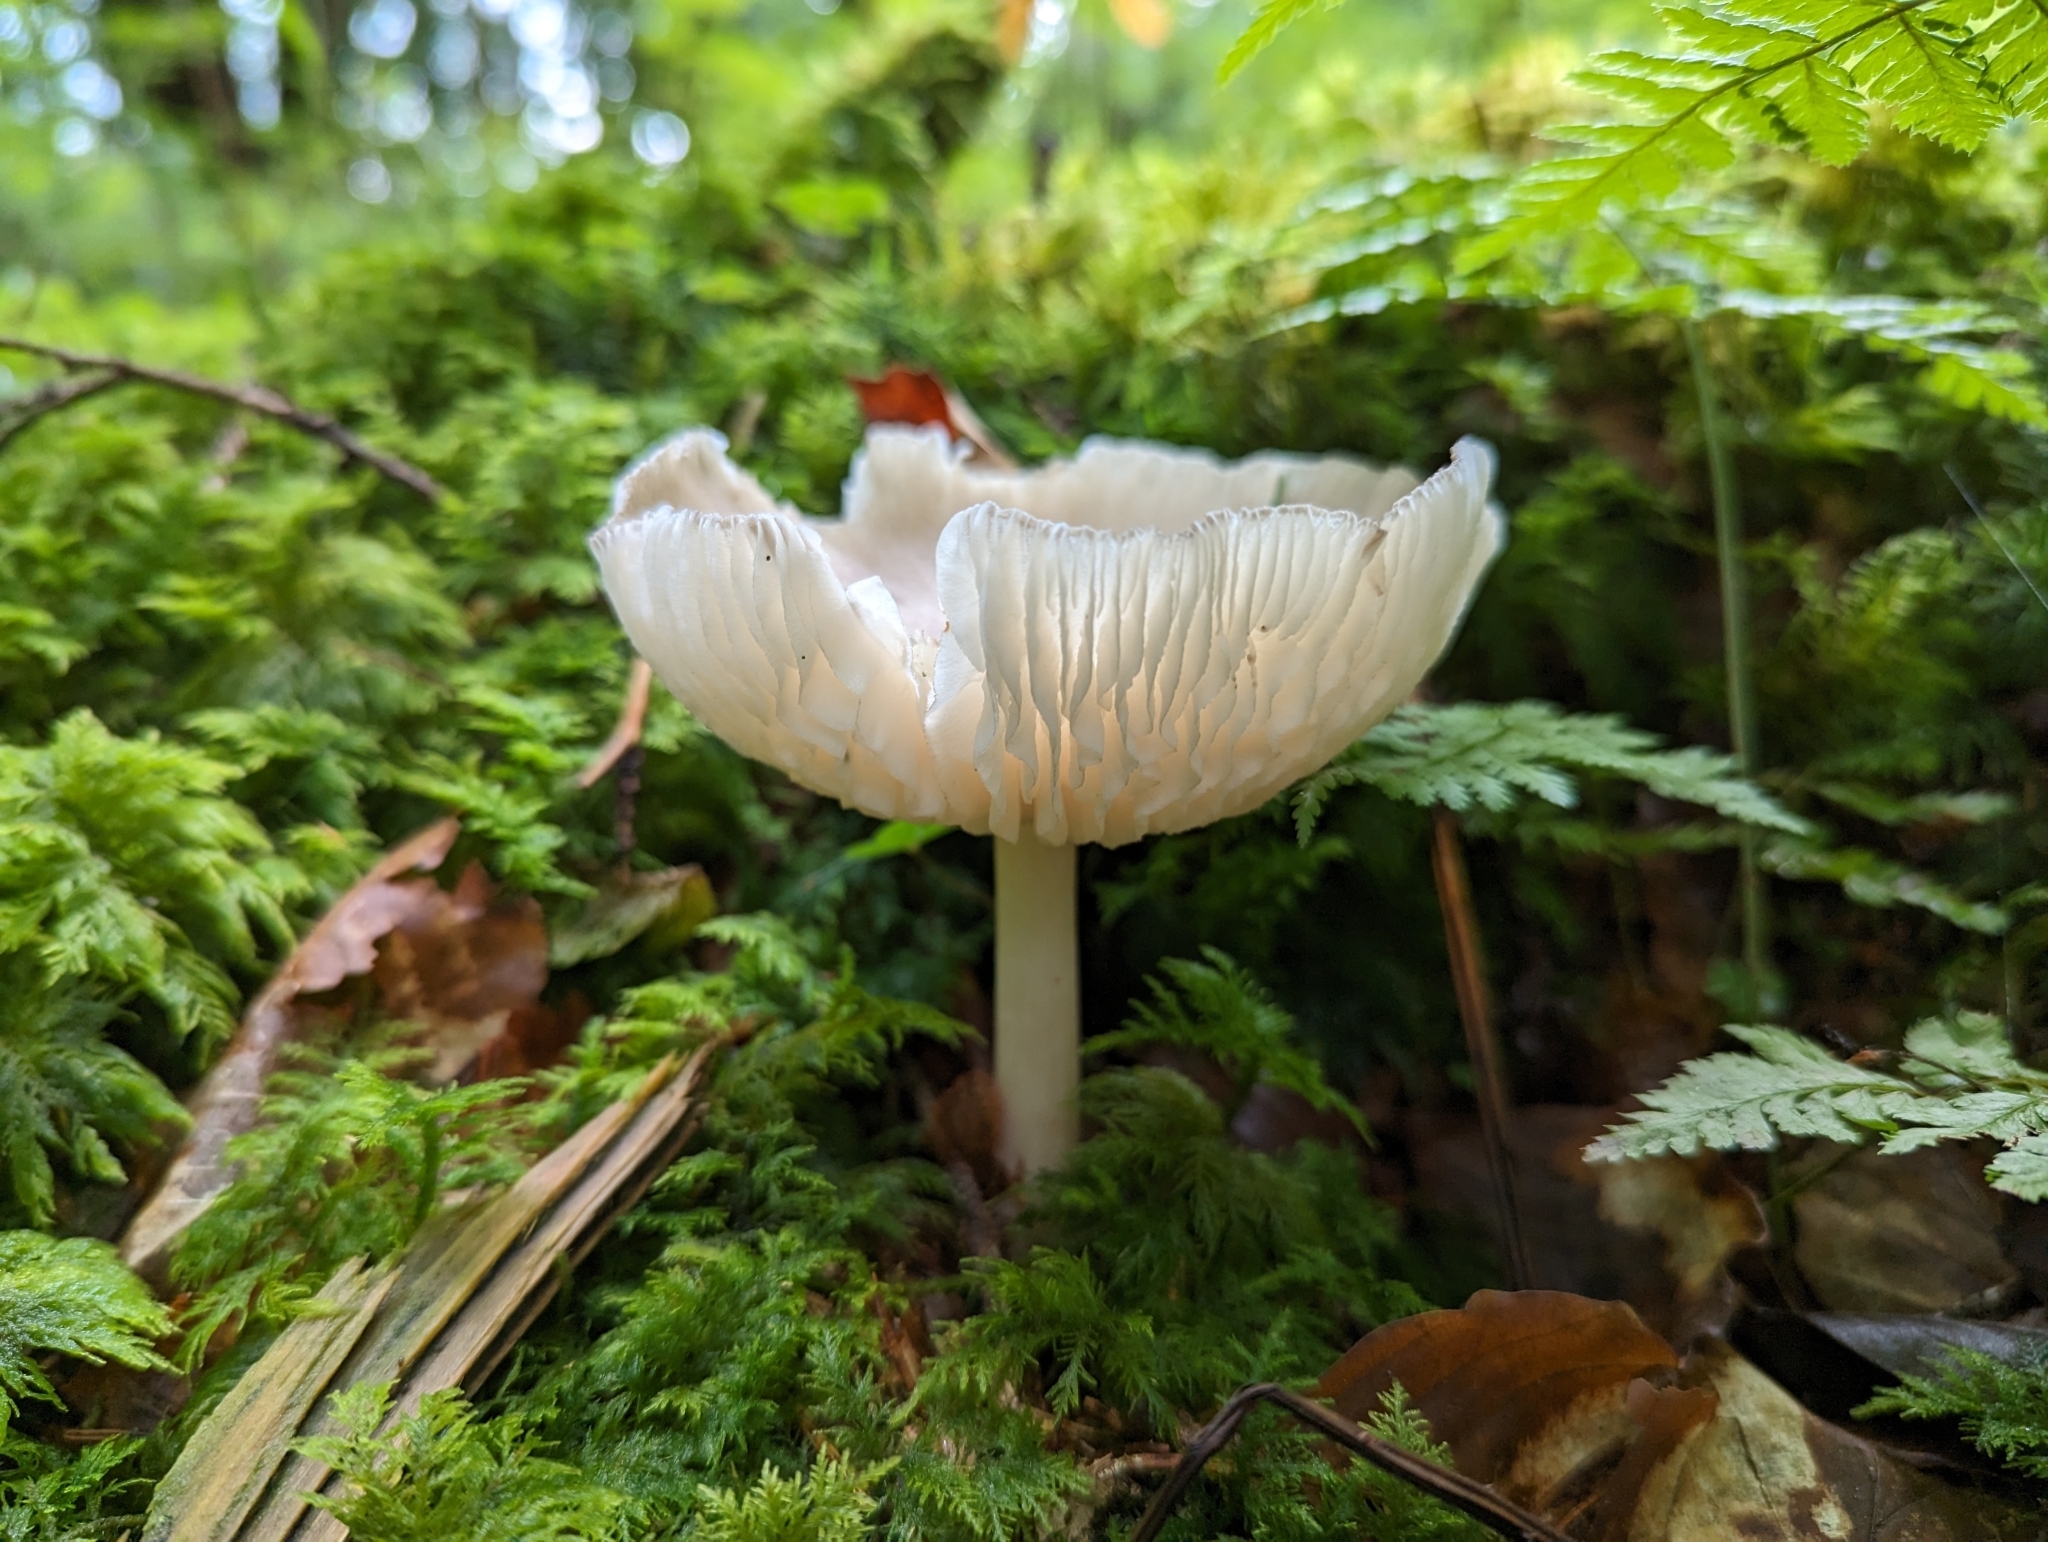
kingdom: Fungi
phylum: Basidiomycota
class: Agaricomycetes
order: Agaricales
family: Tricholomataceae
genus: Megacollybia
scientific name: Megacollybia platyphylla
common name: Whitelaced shank
